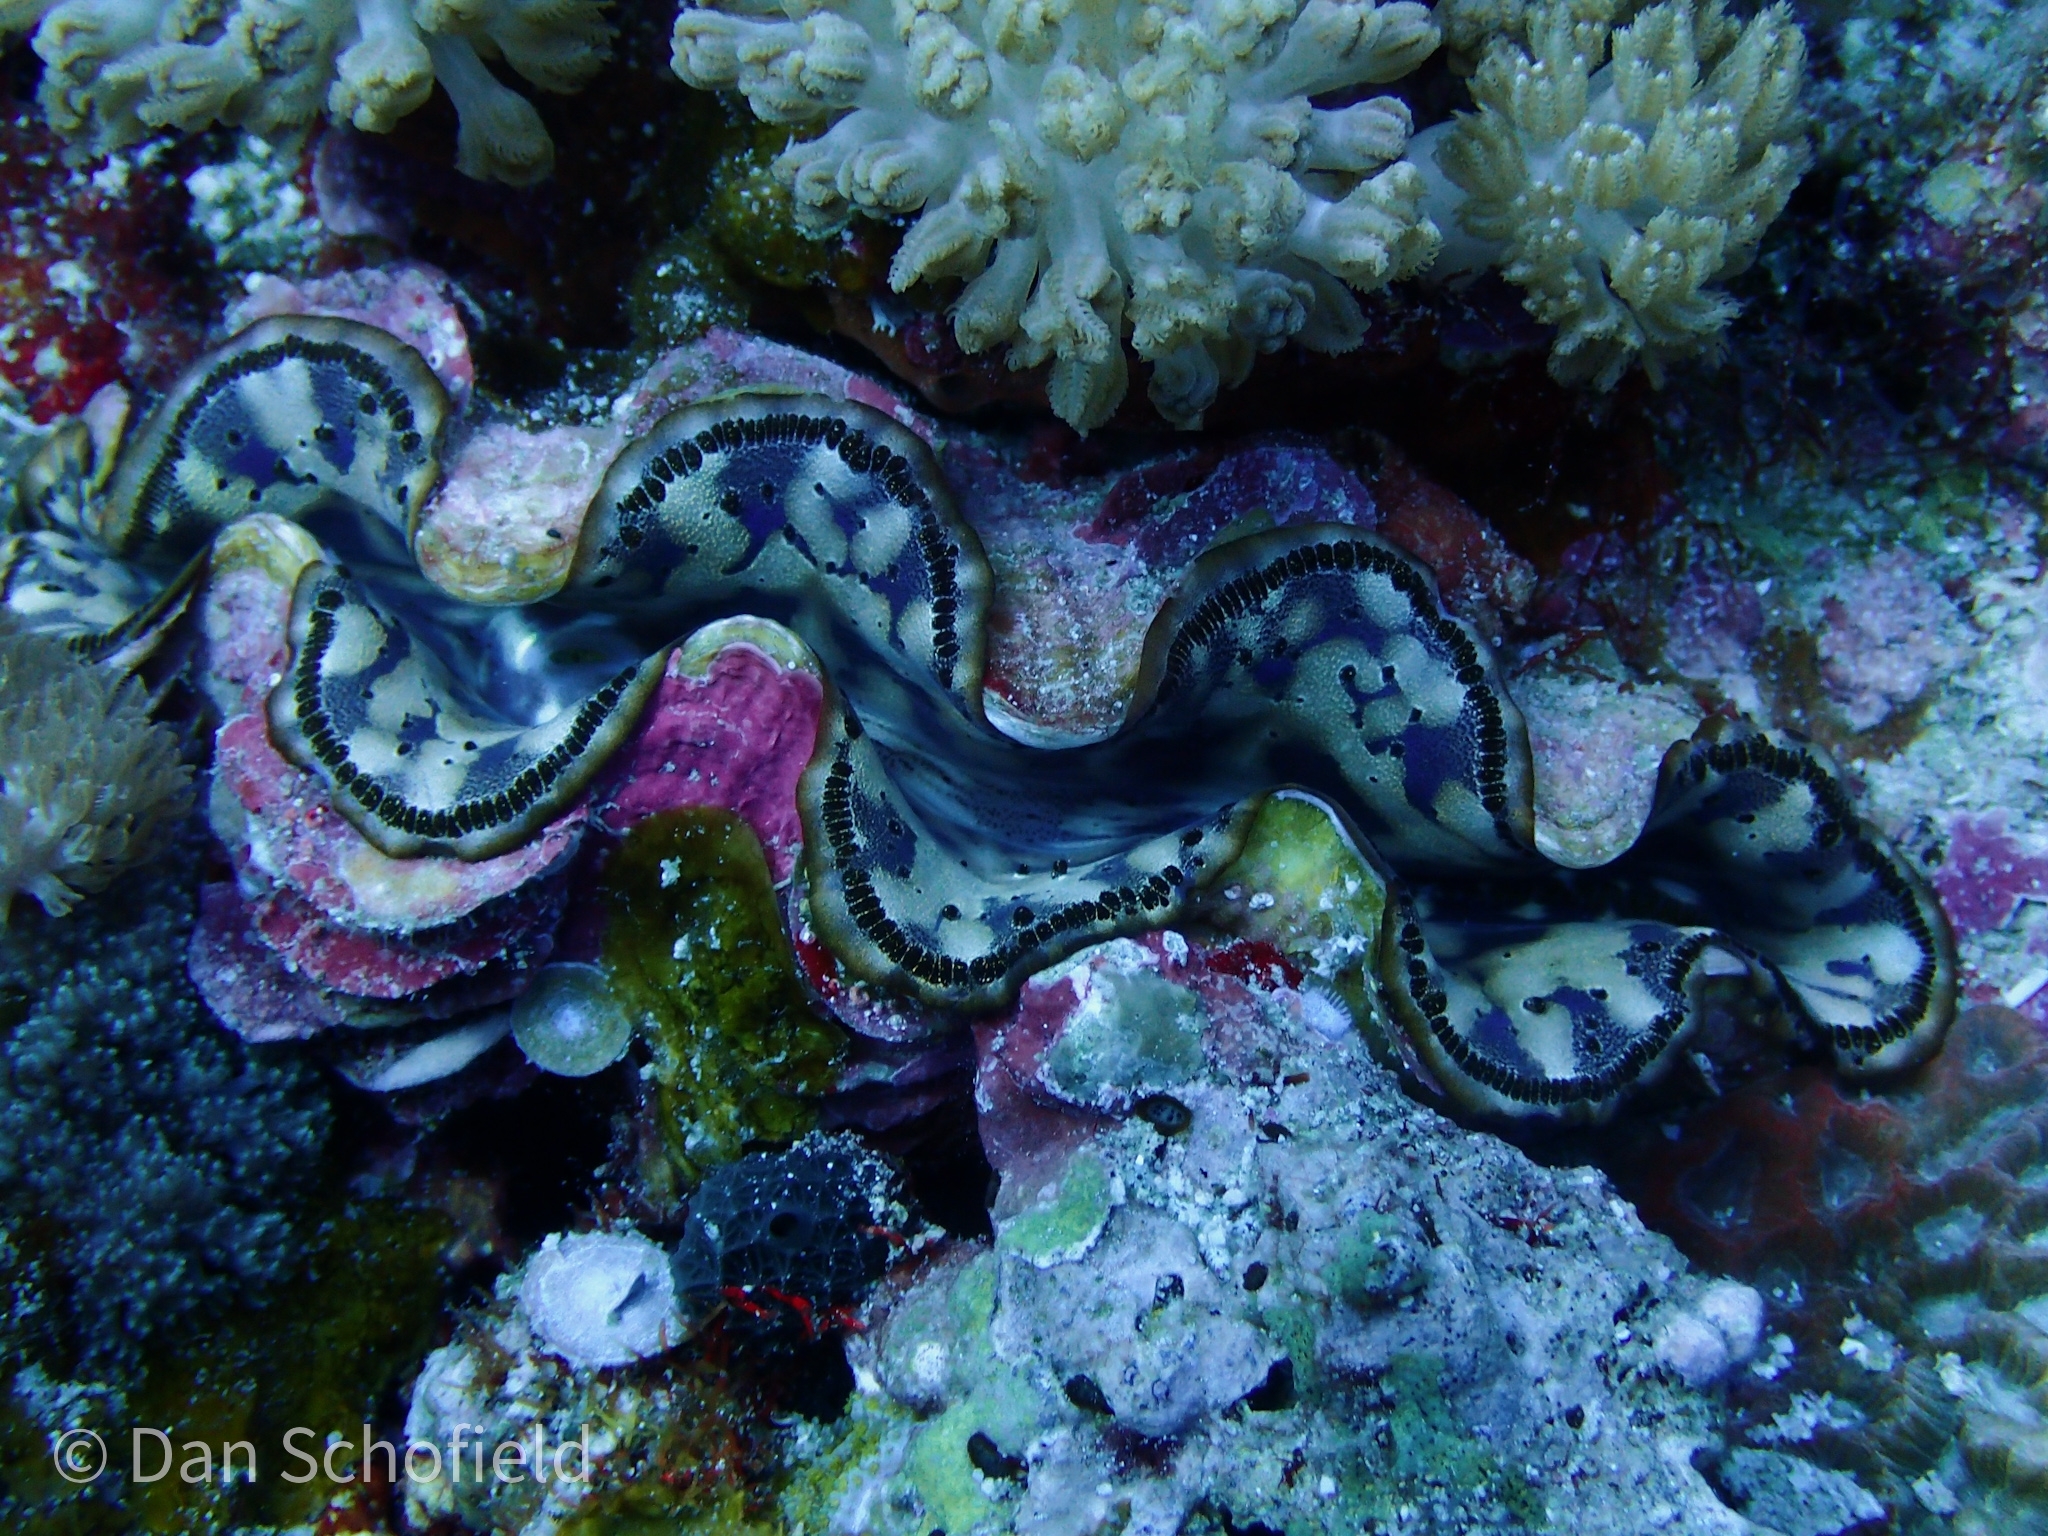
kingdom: Animalia
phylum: Mollusca
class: Bivalvia
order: Cardiida
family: Cardiidae
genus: Tridacna
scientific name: Tridacna maxima
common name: Small giant clam
